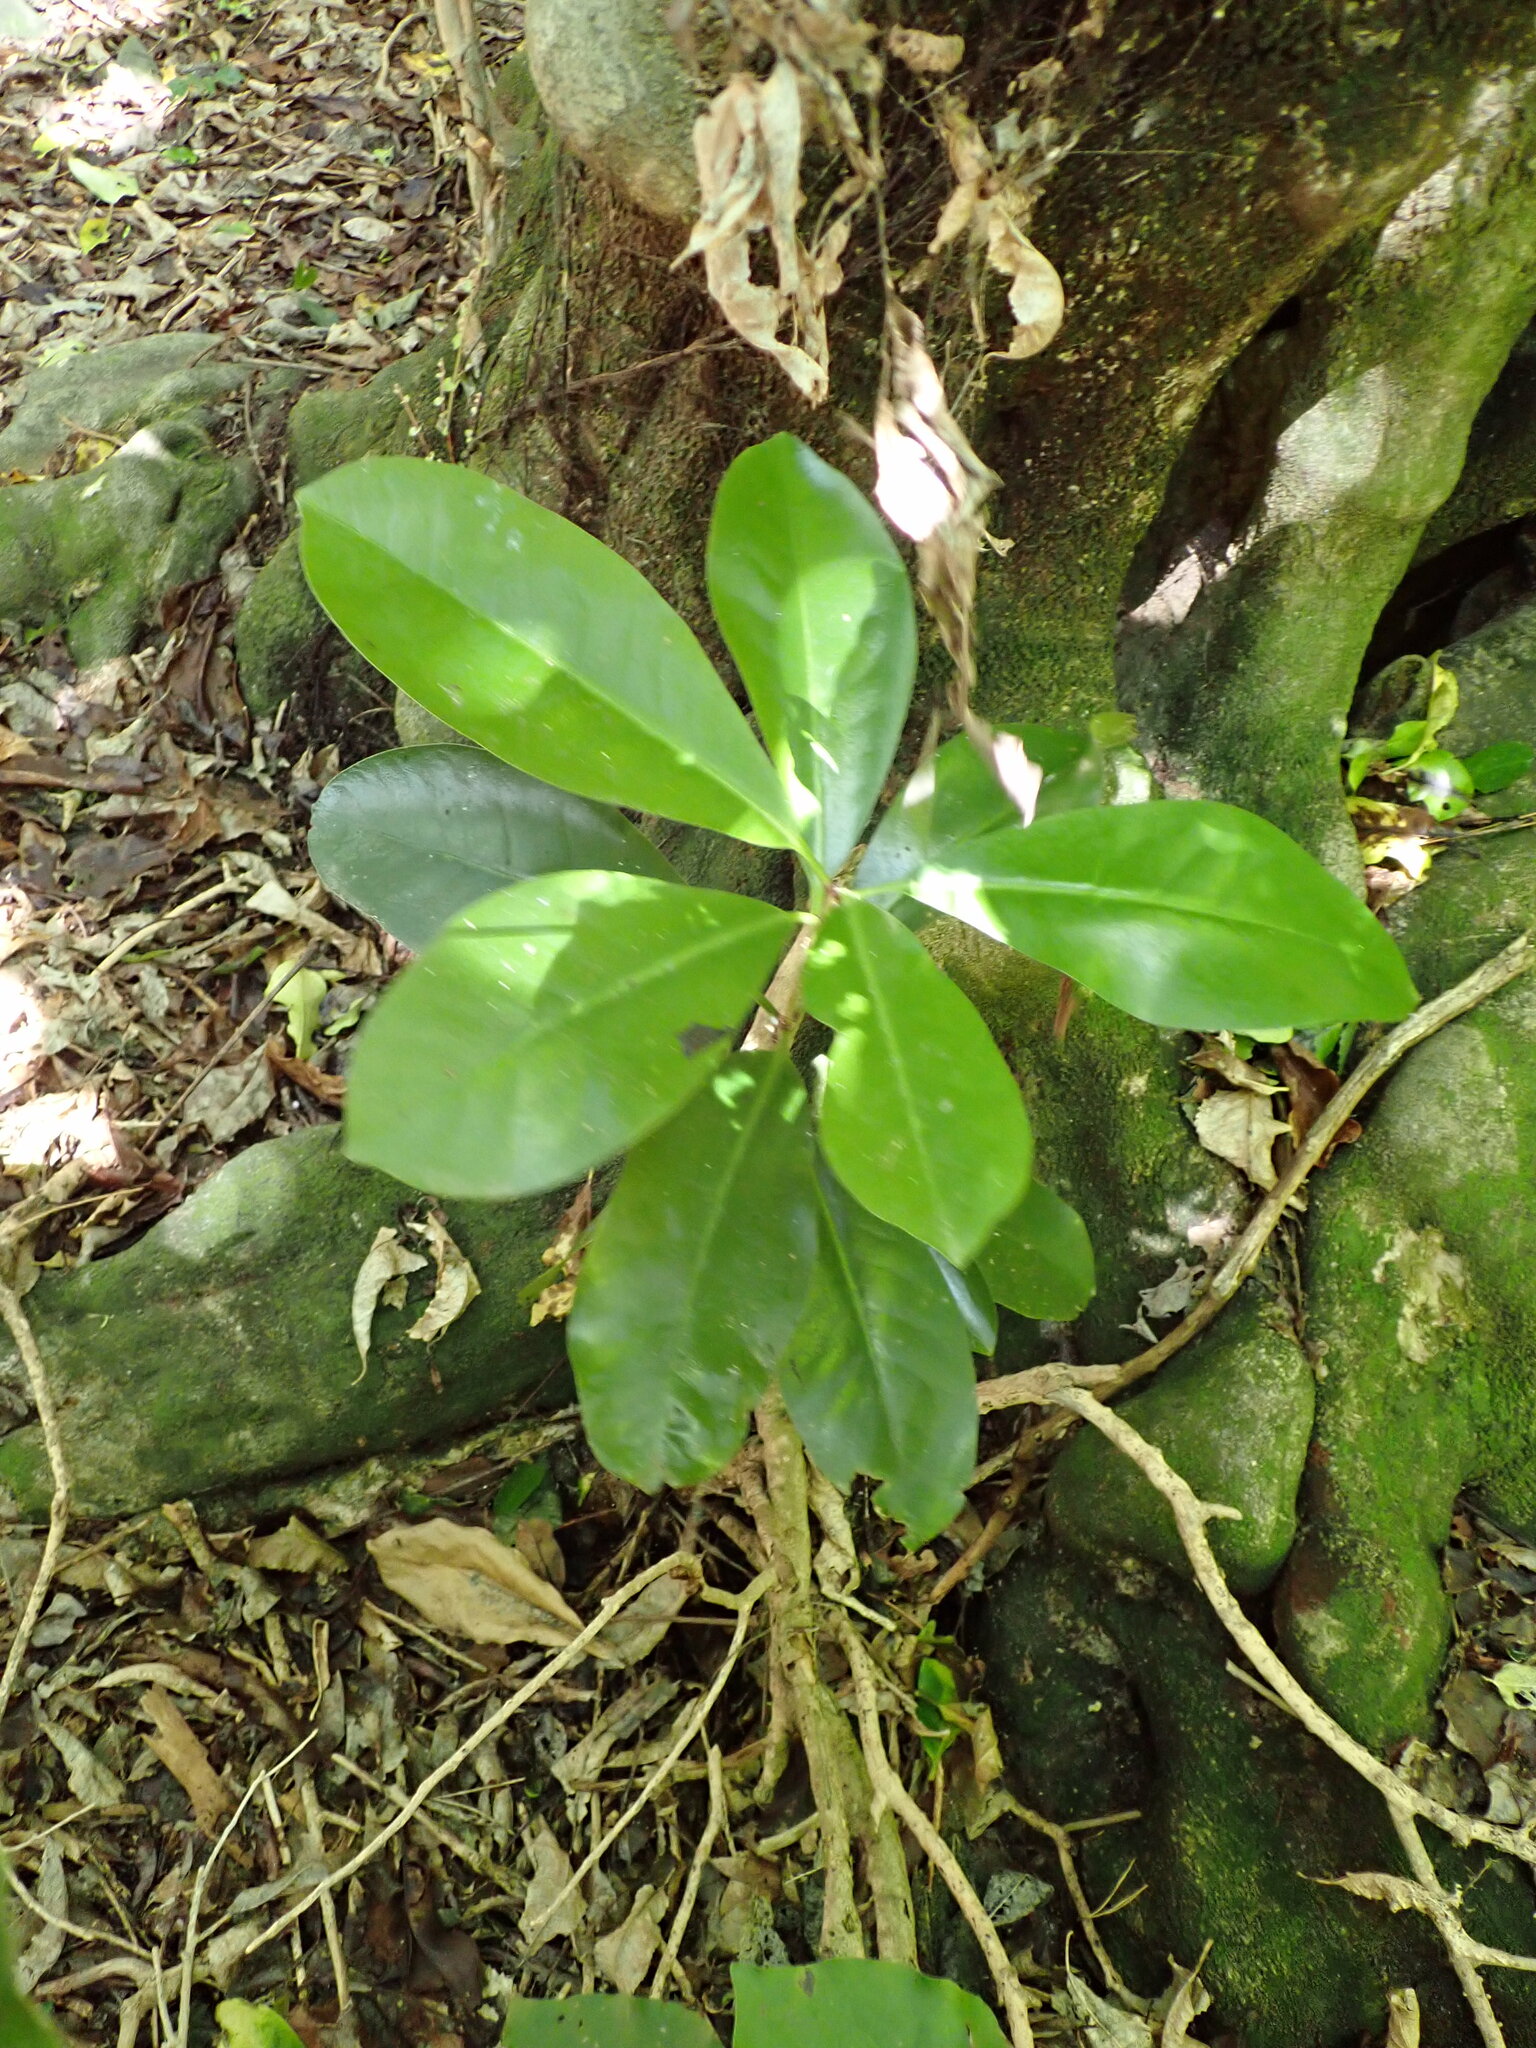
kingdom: Plantae
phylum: Tracheophyta
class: Magnoliopsida
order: Cucurbitales
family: Corynocarpaceae
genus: Corynocarpus
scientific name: Corynocarpus laevigatus
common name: New zealand laurel
